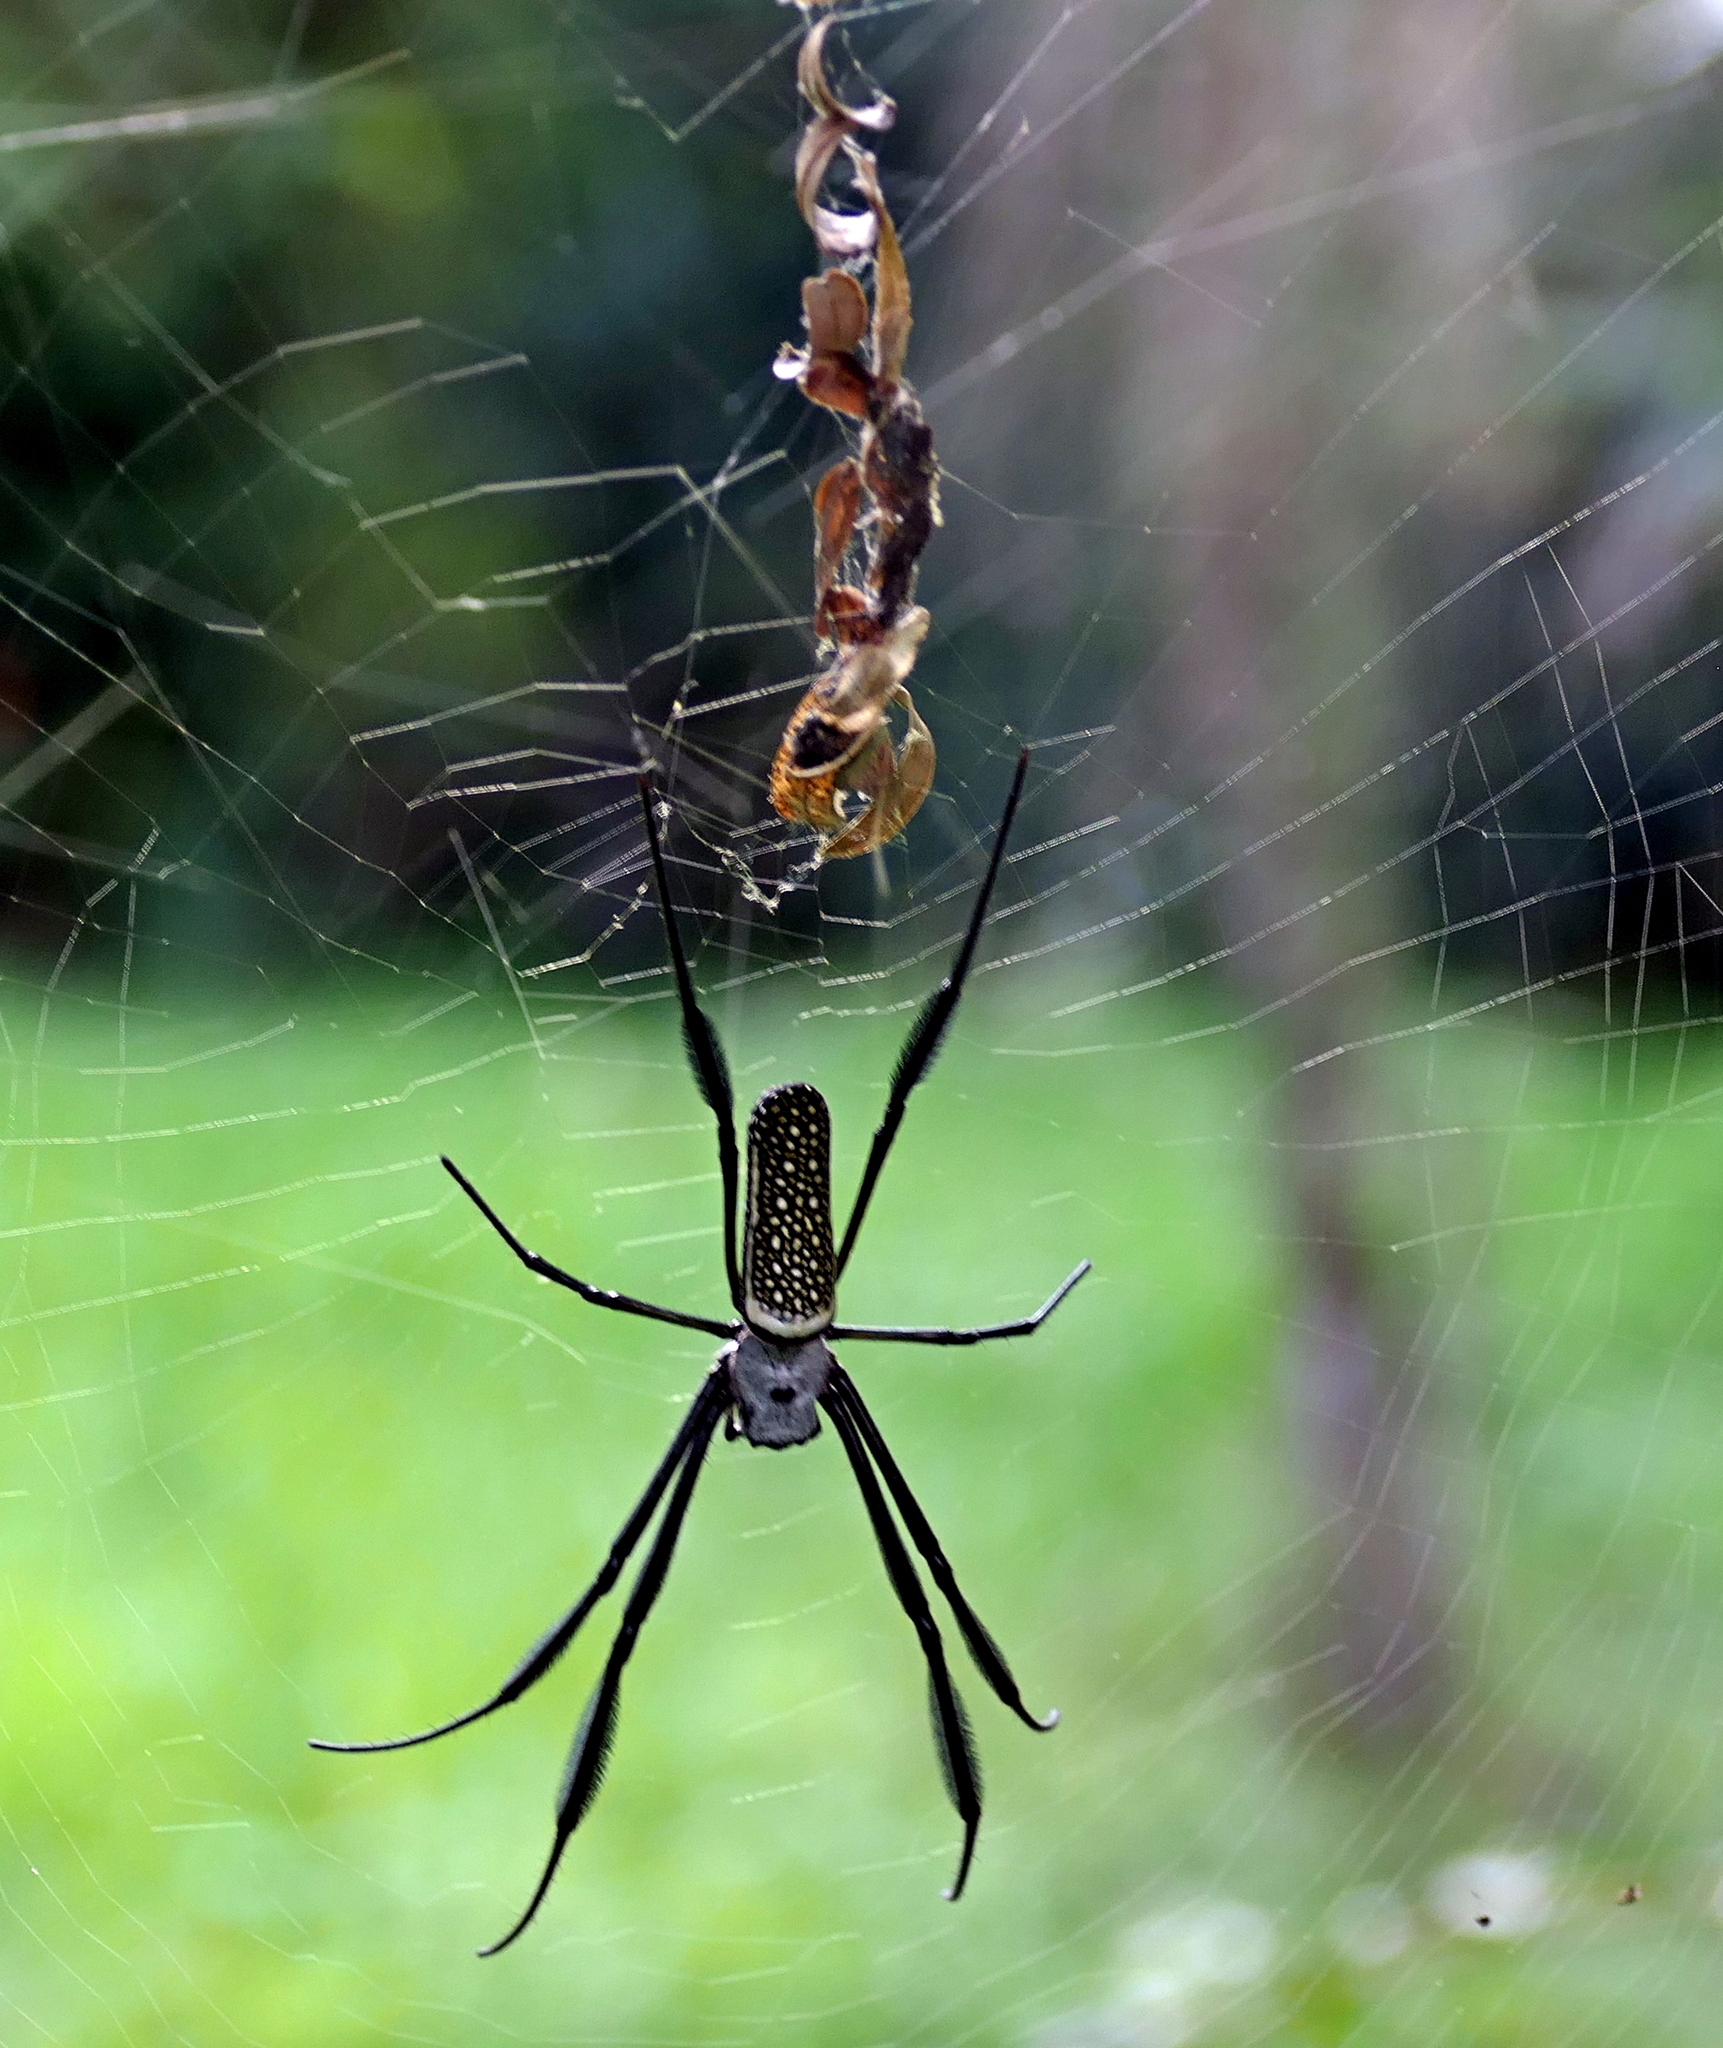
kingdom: Animalia
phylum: Arthropoda
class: Arachnida
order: Araneae
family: Araneidae
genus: Trichonephila
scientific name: Trichonephila clavipes
